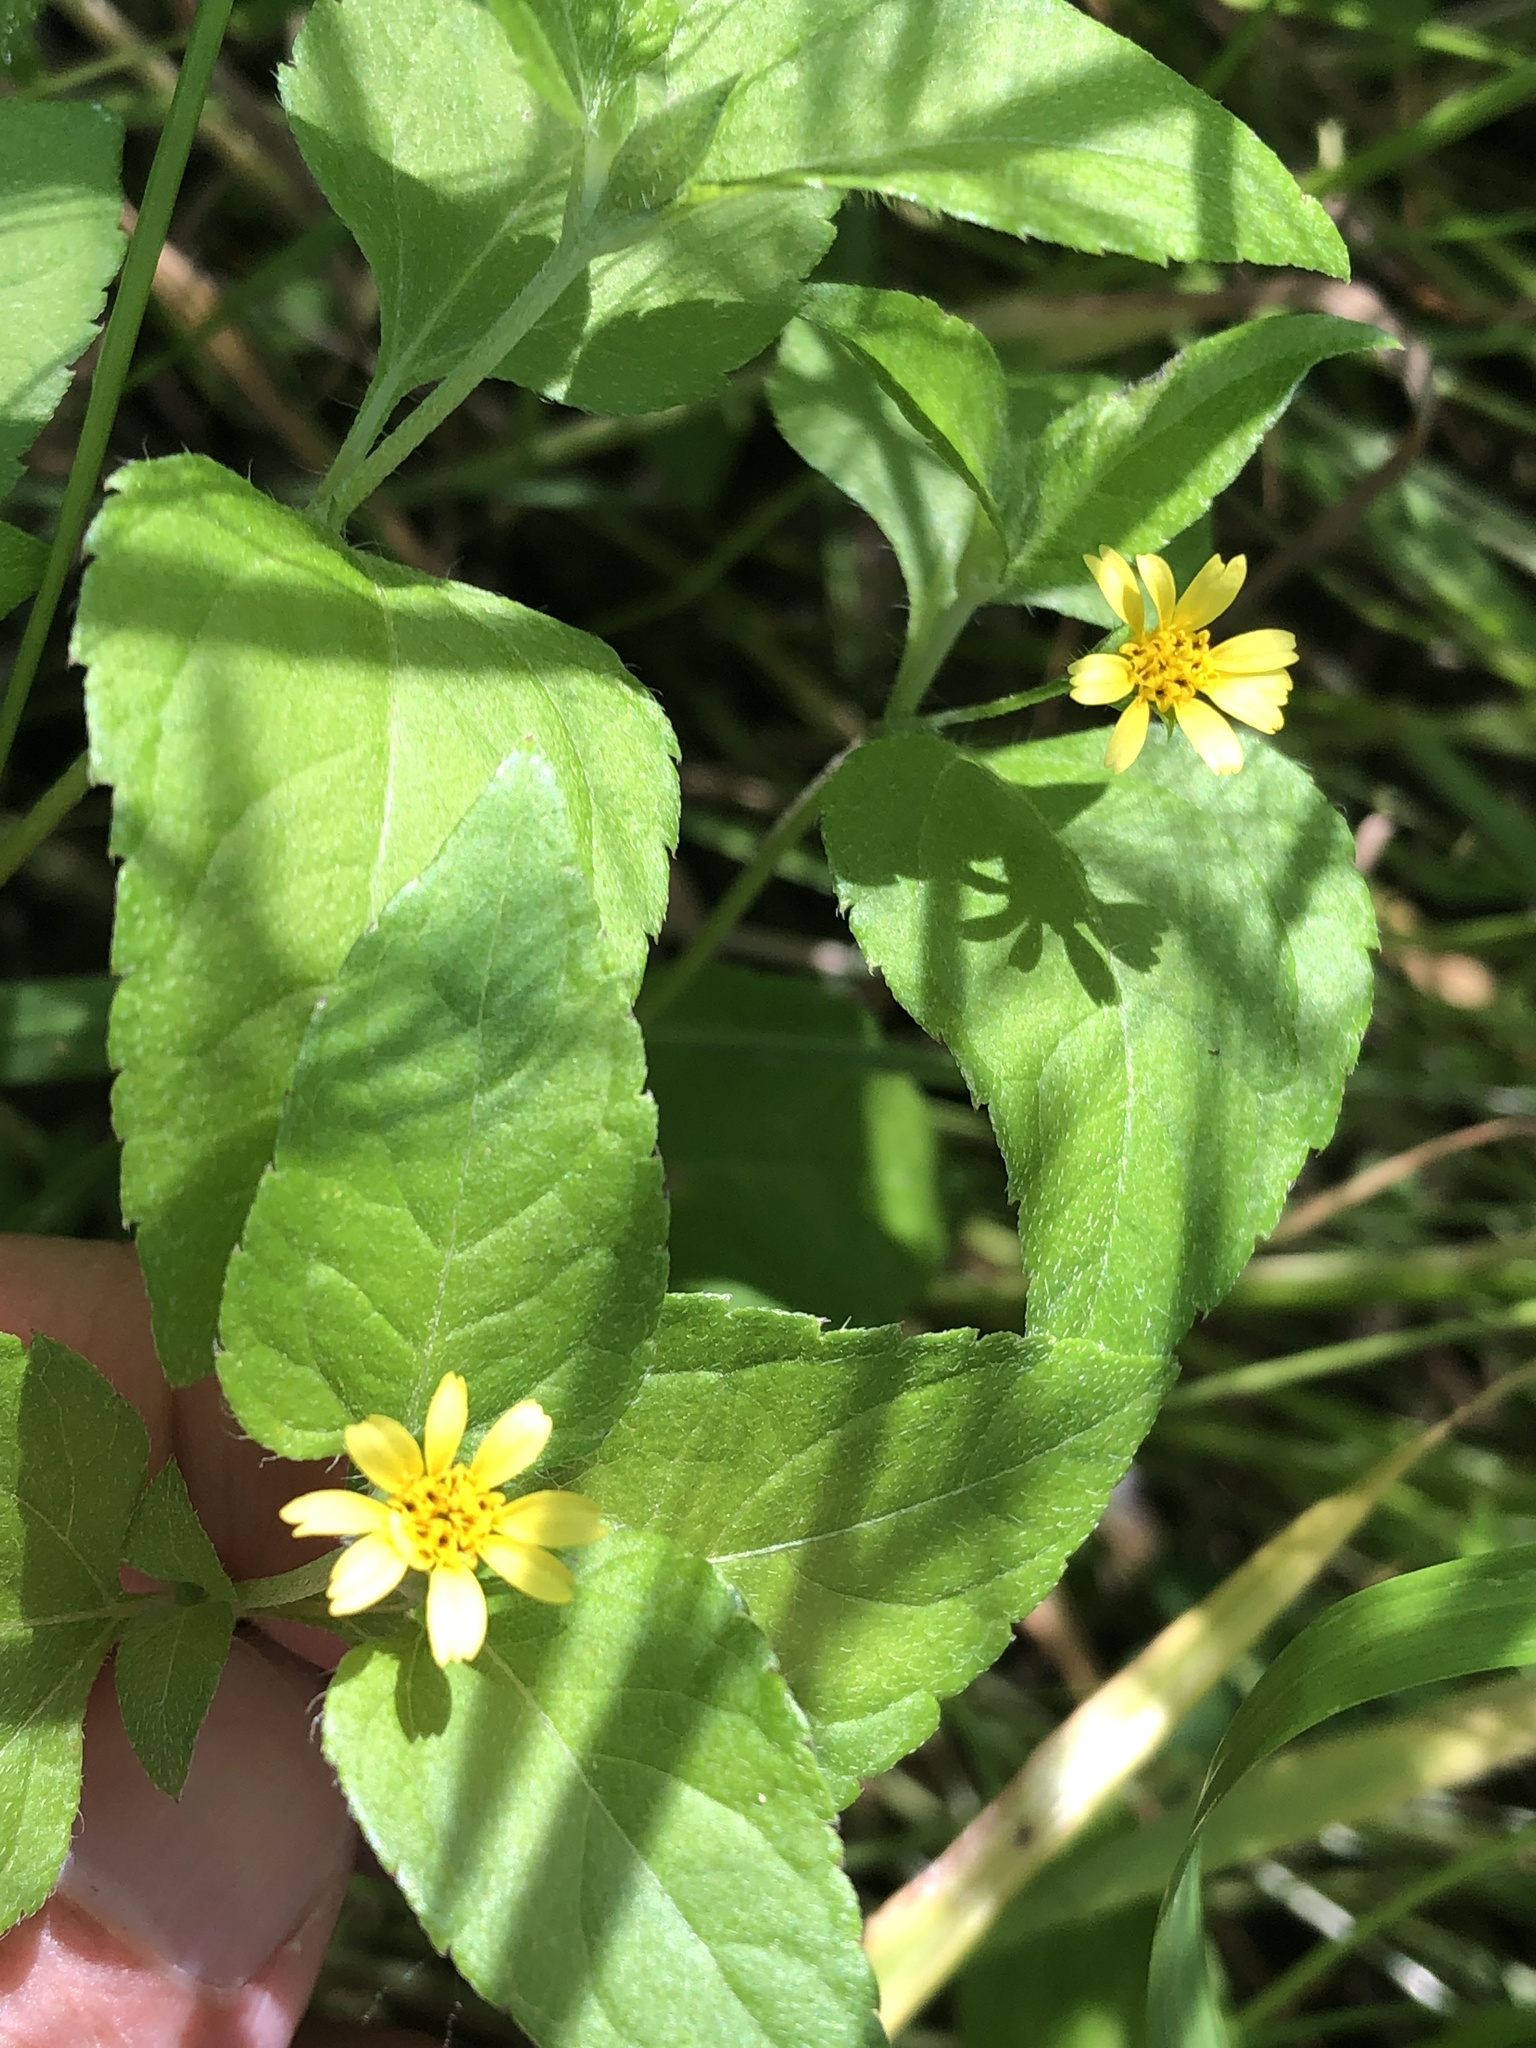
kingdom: Plantae
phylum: Tracheophyta
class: Magnoliopsida
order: Asterales
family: Asteraceae
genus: Calyptocarpus
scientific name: Calyptocarpus vialis
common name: Straggler daisy
